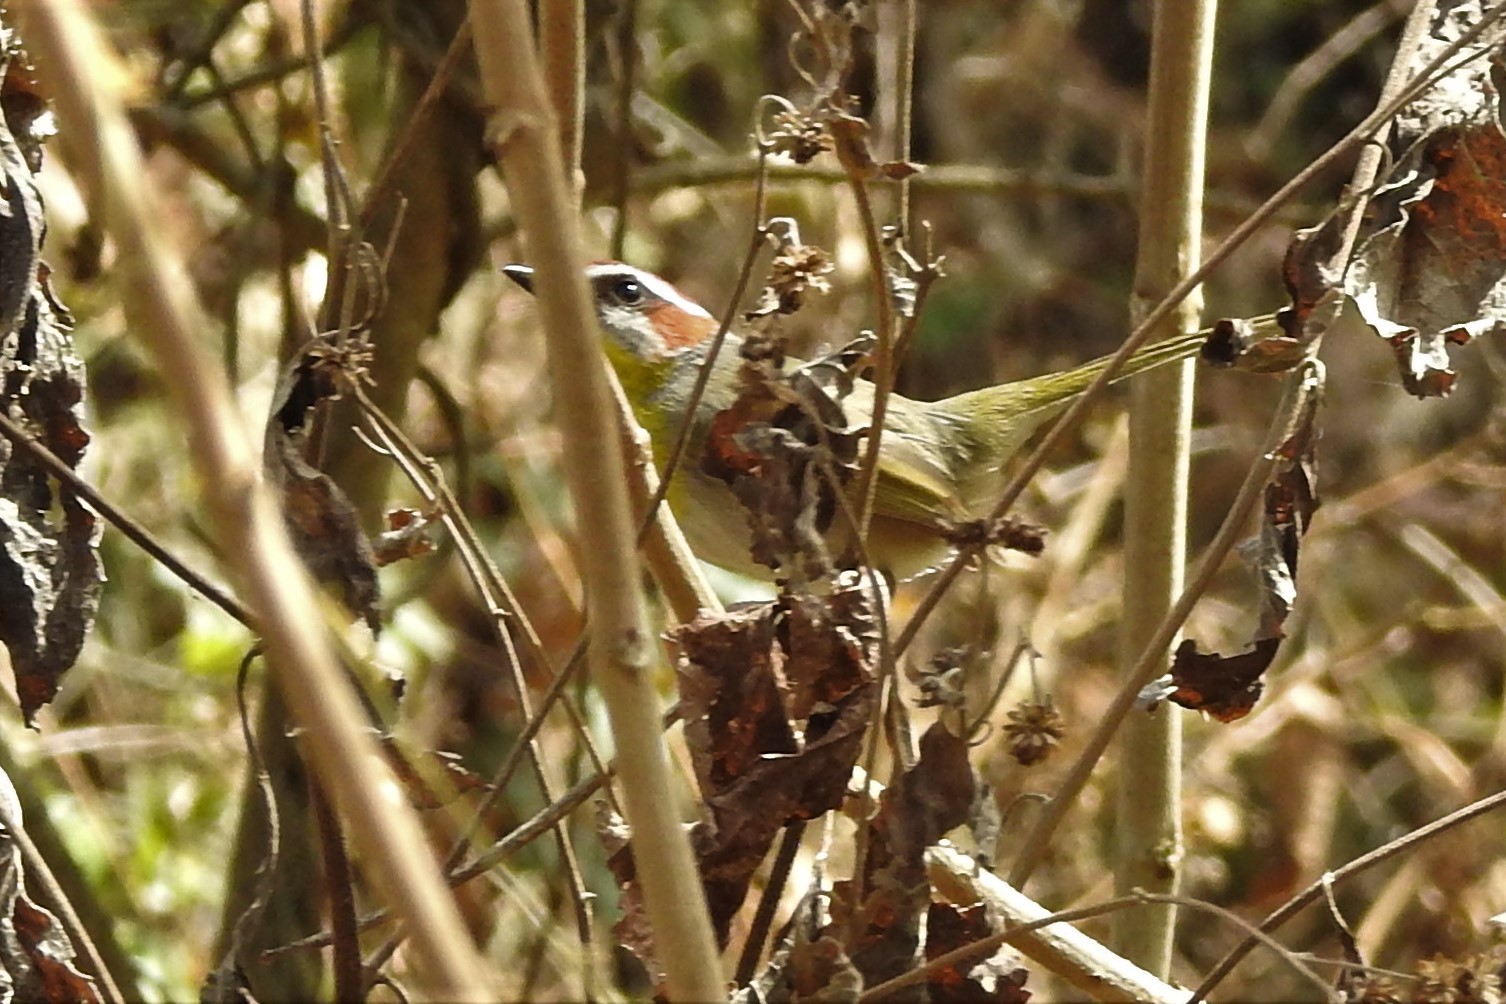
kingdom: Animalia
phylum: Chordata
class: Aves
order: Passeriformes
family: Parulidae
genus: Basileuterus
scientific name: Basileuterus rufifrons
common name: Rufous-capped warbler
